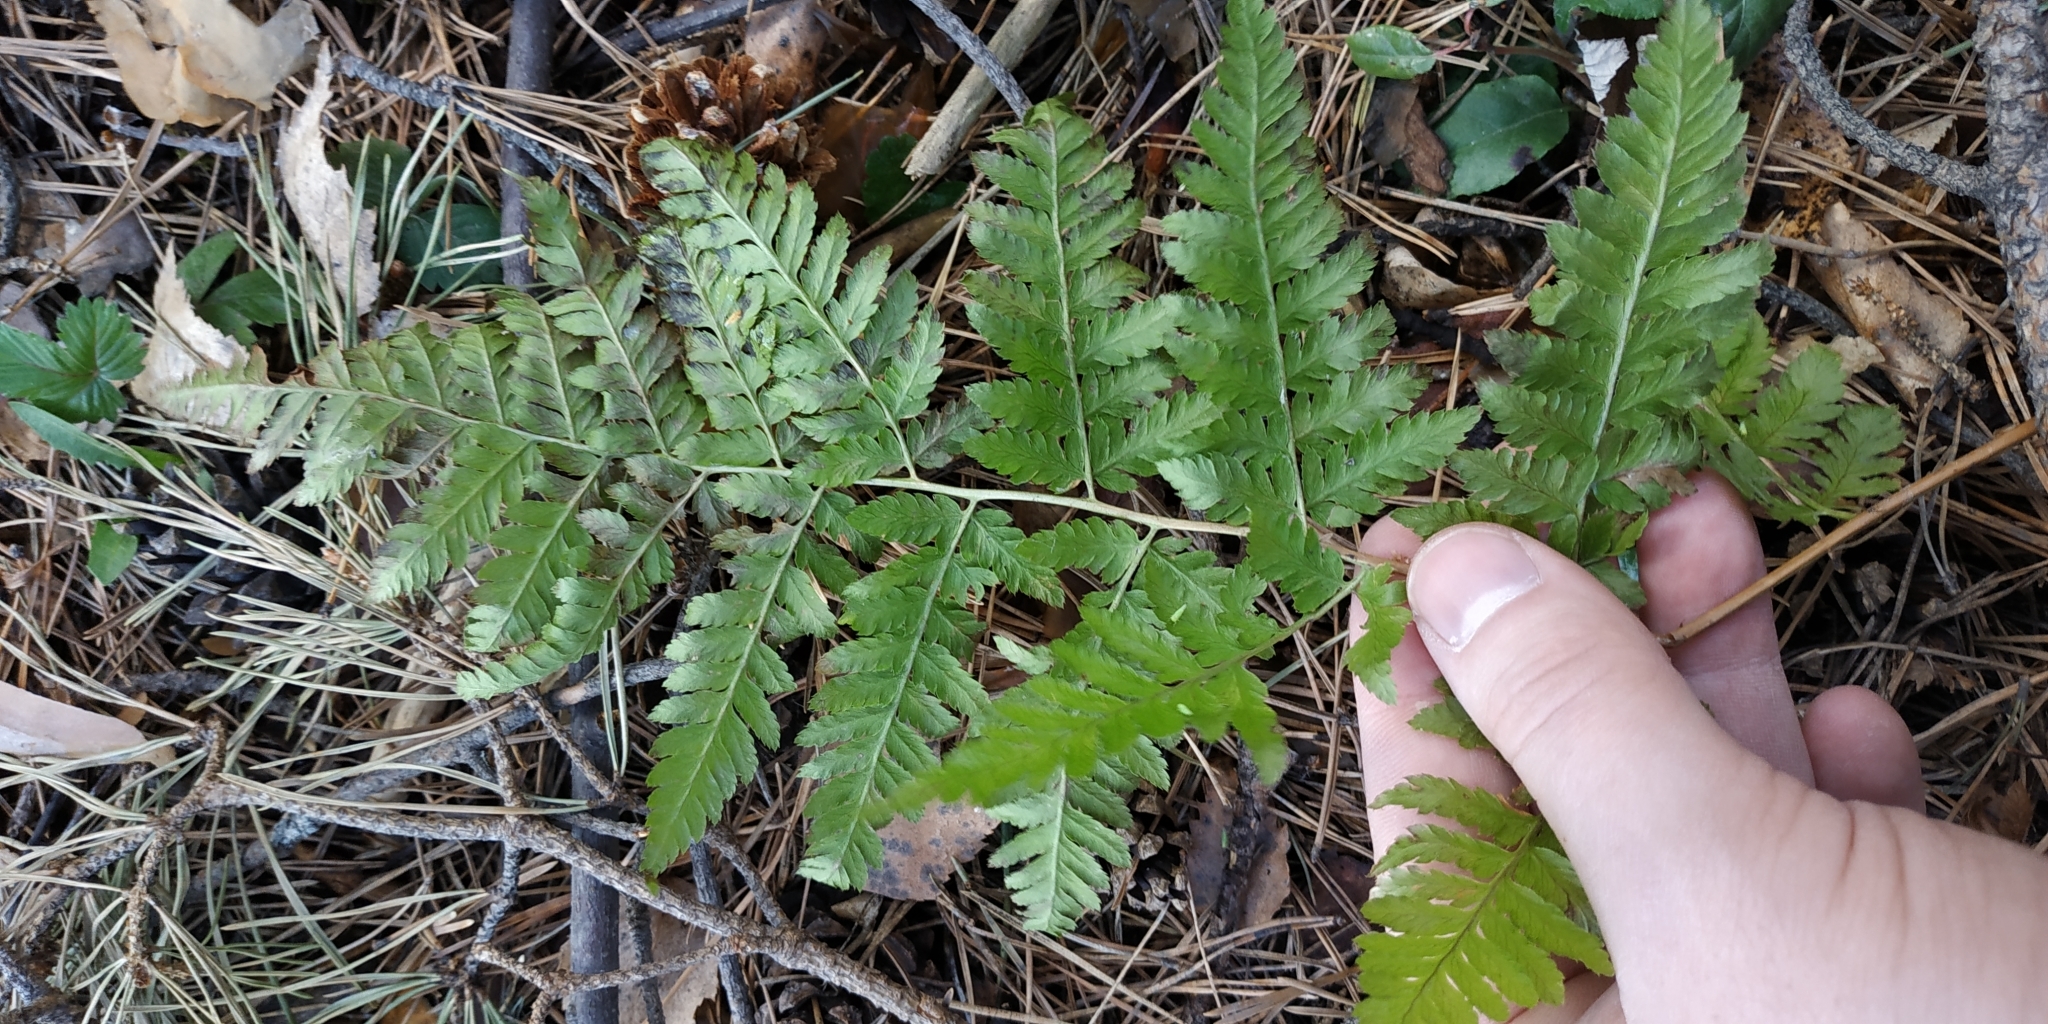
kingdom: Plantae
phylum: Tracheophyta
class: Polypodiopsida
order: Polypodiales
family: Dryopteridaceae
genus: Dryopteris
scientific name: Dryopteris carthusiana
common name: Narrow buckler-fern
